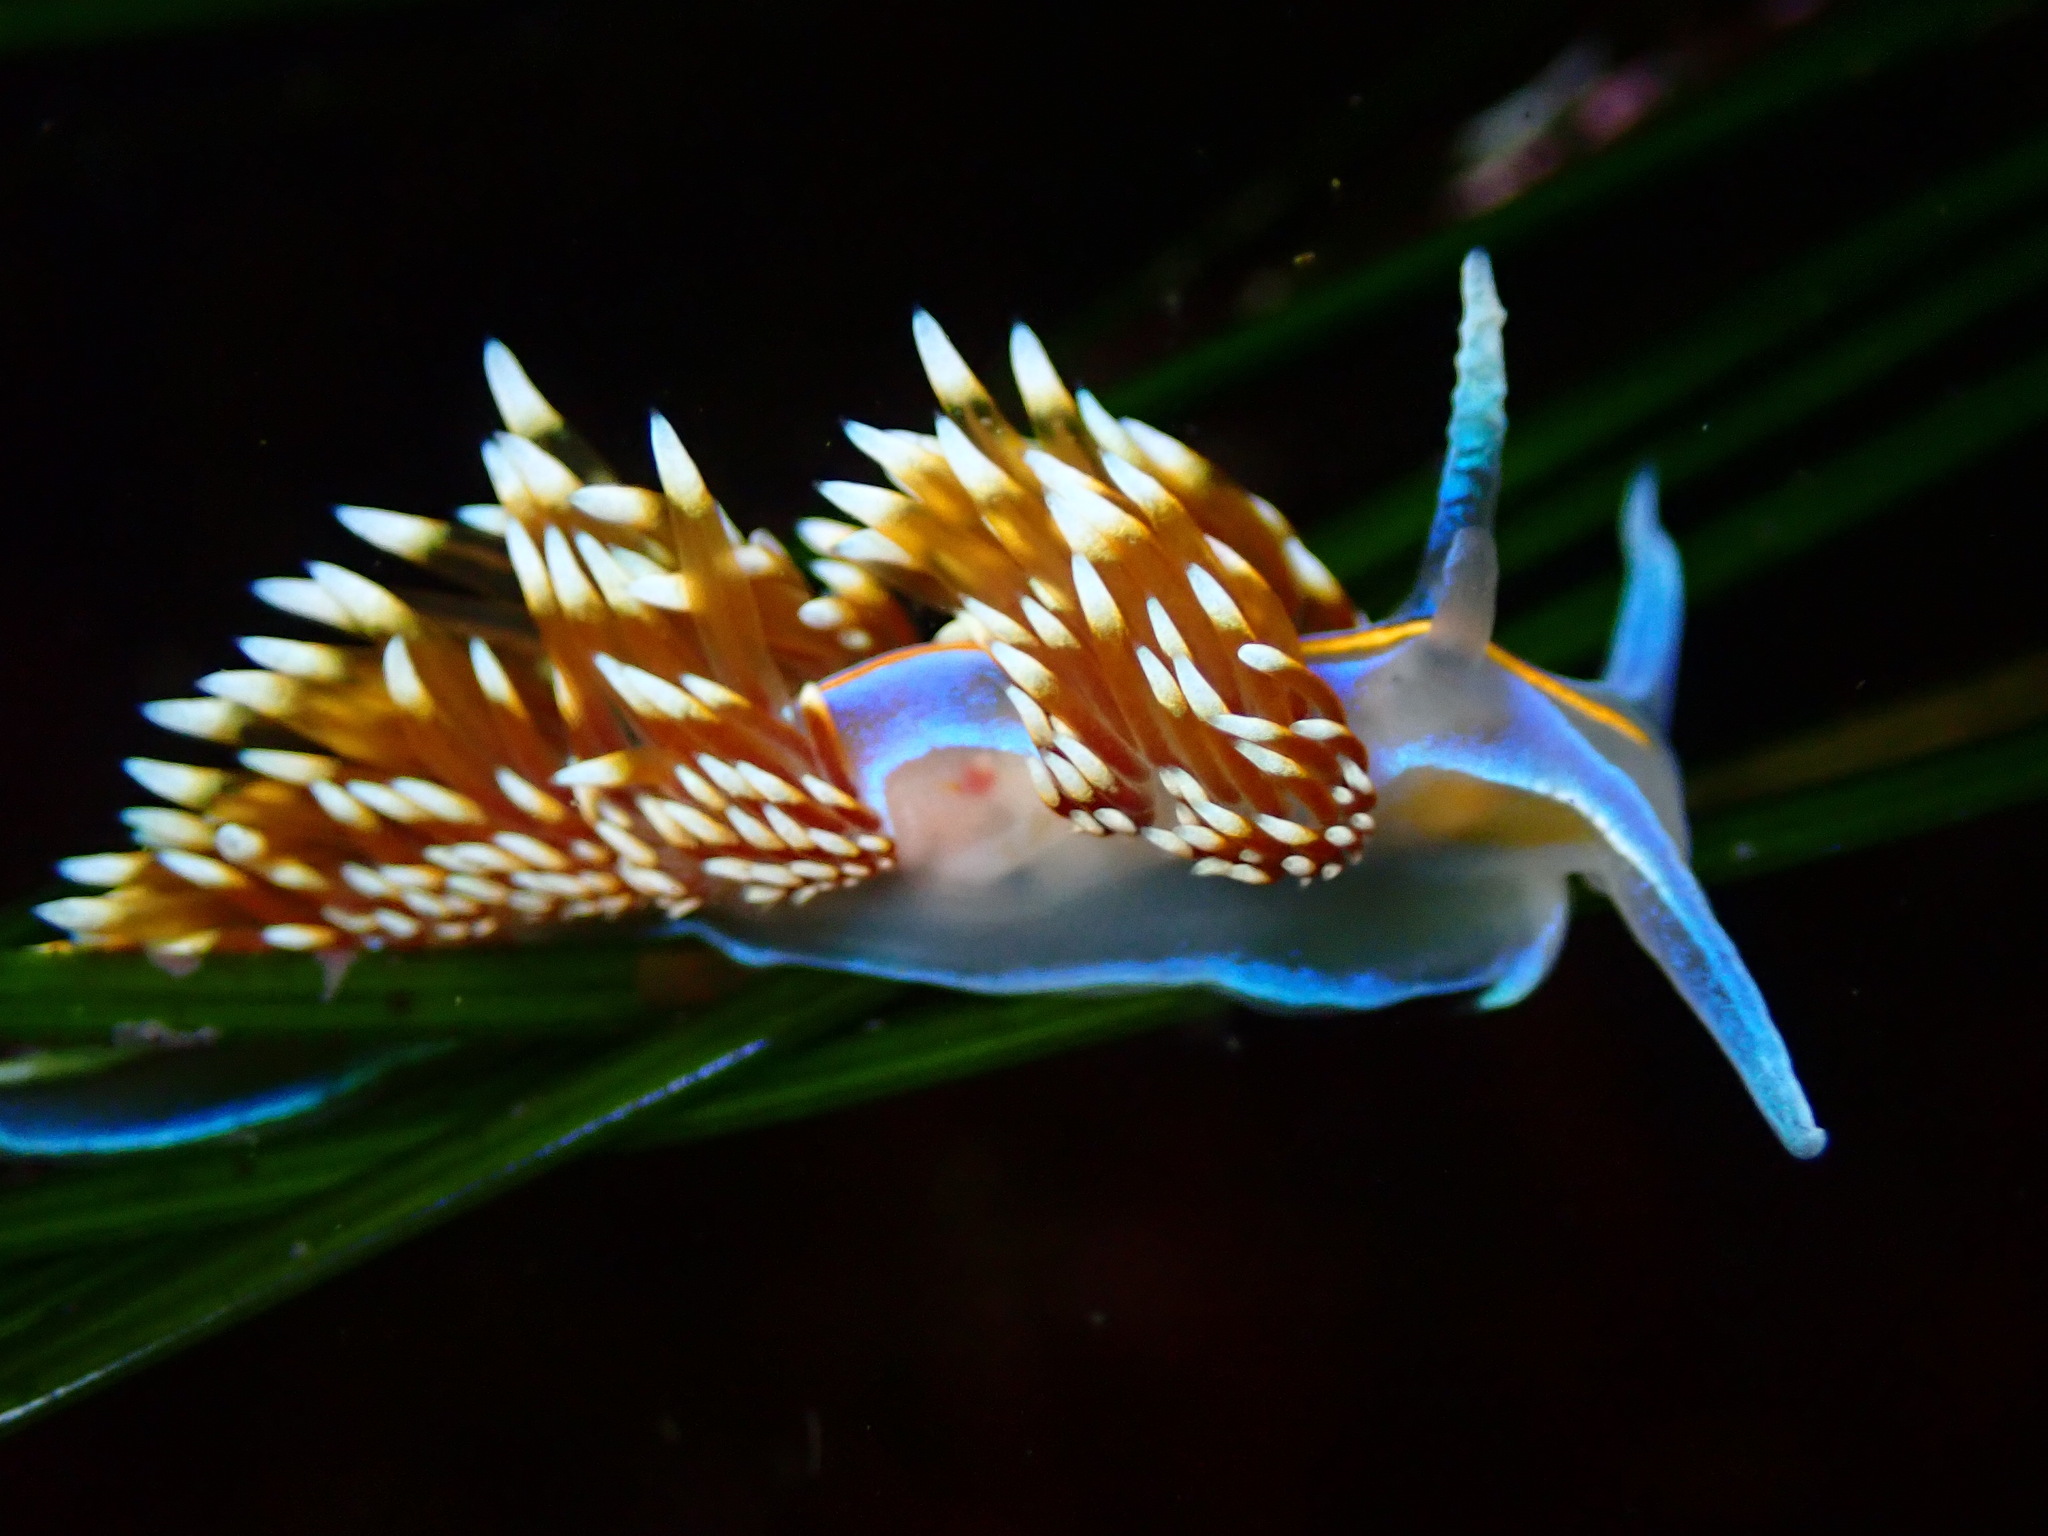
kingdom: Animalia
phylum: Mollusca
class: Gastropoda
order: Nudibranchia
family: Myrrhinidae
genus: Hermissenda
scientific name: Hermissenda opalescens
